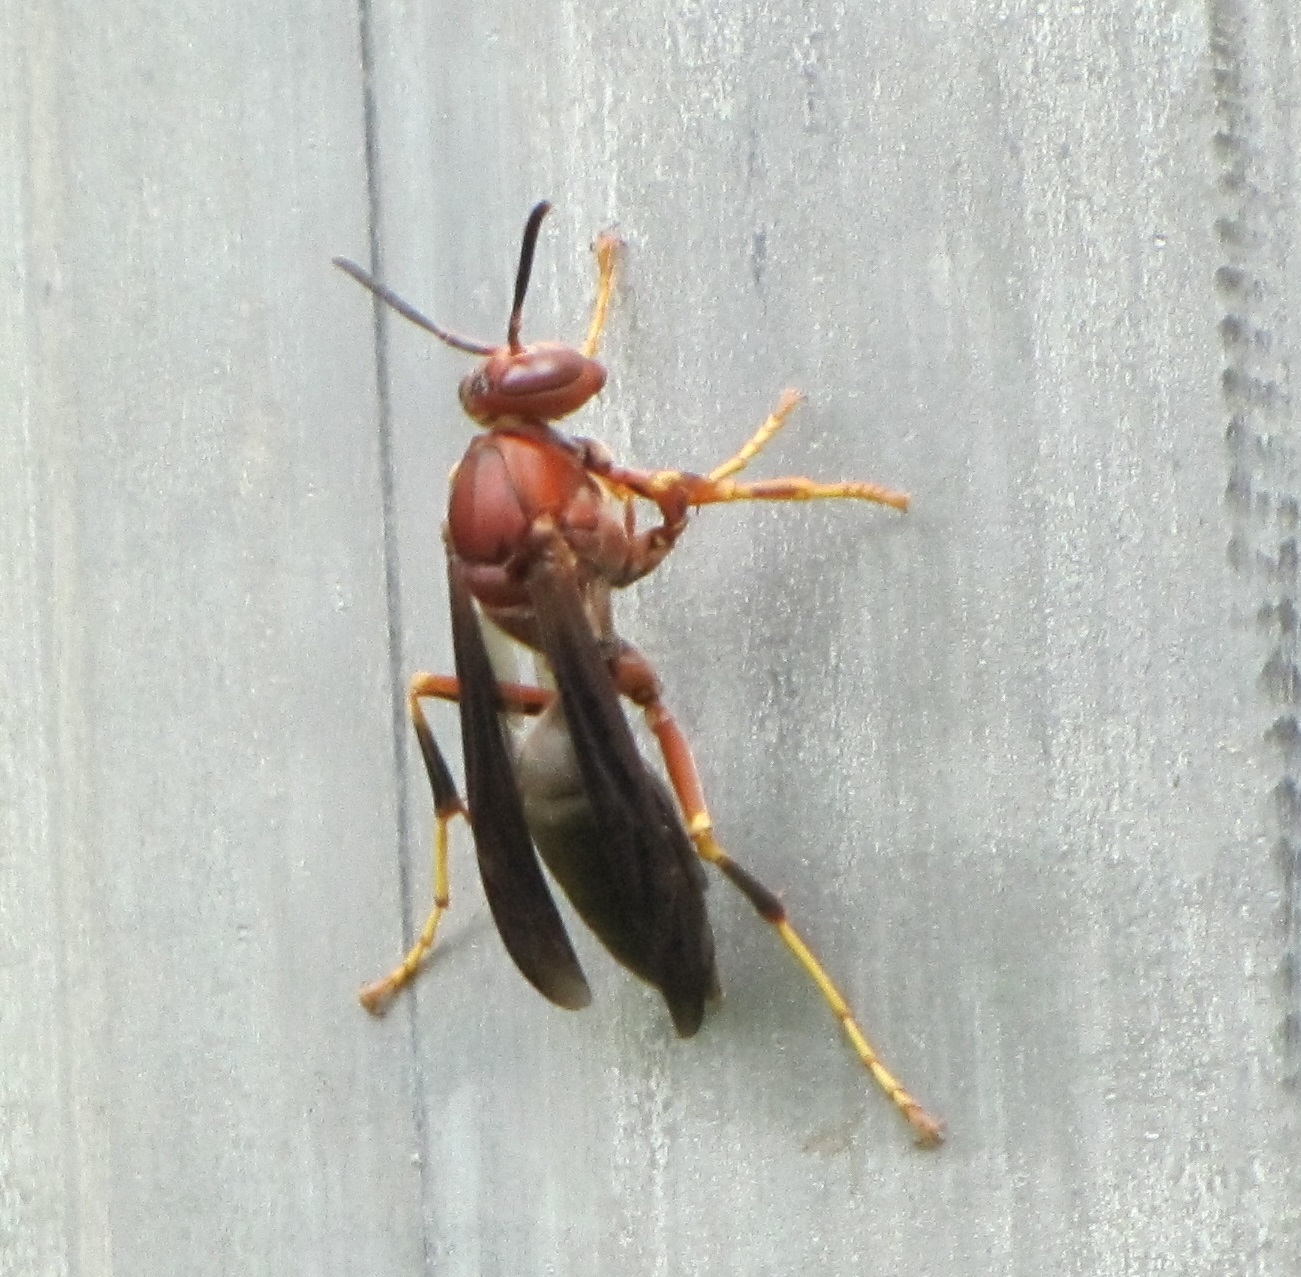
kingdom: Animalia
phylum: Arthropoda
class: Insecta
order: Hymenoptera
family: Eumenidae
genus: Polistes
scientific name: Polistes metricus
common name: Metric paper wasp
